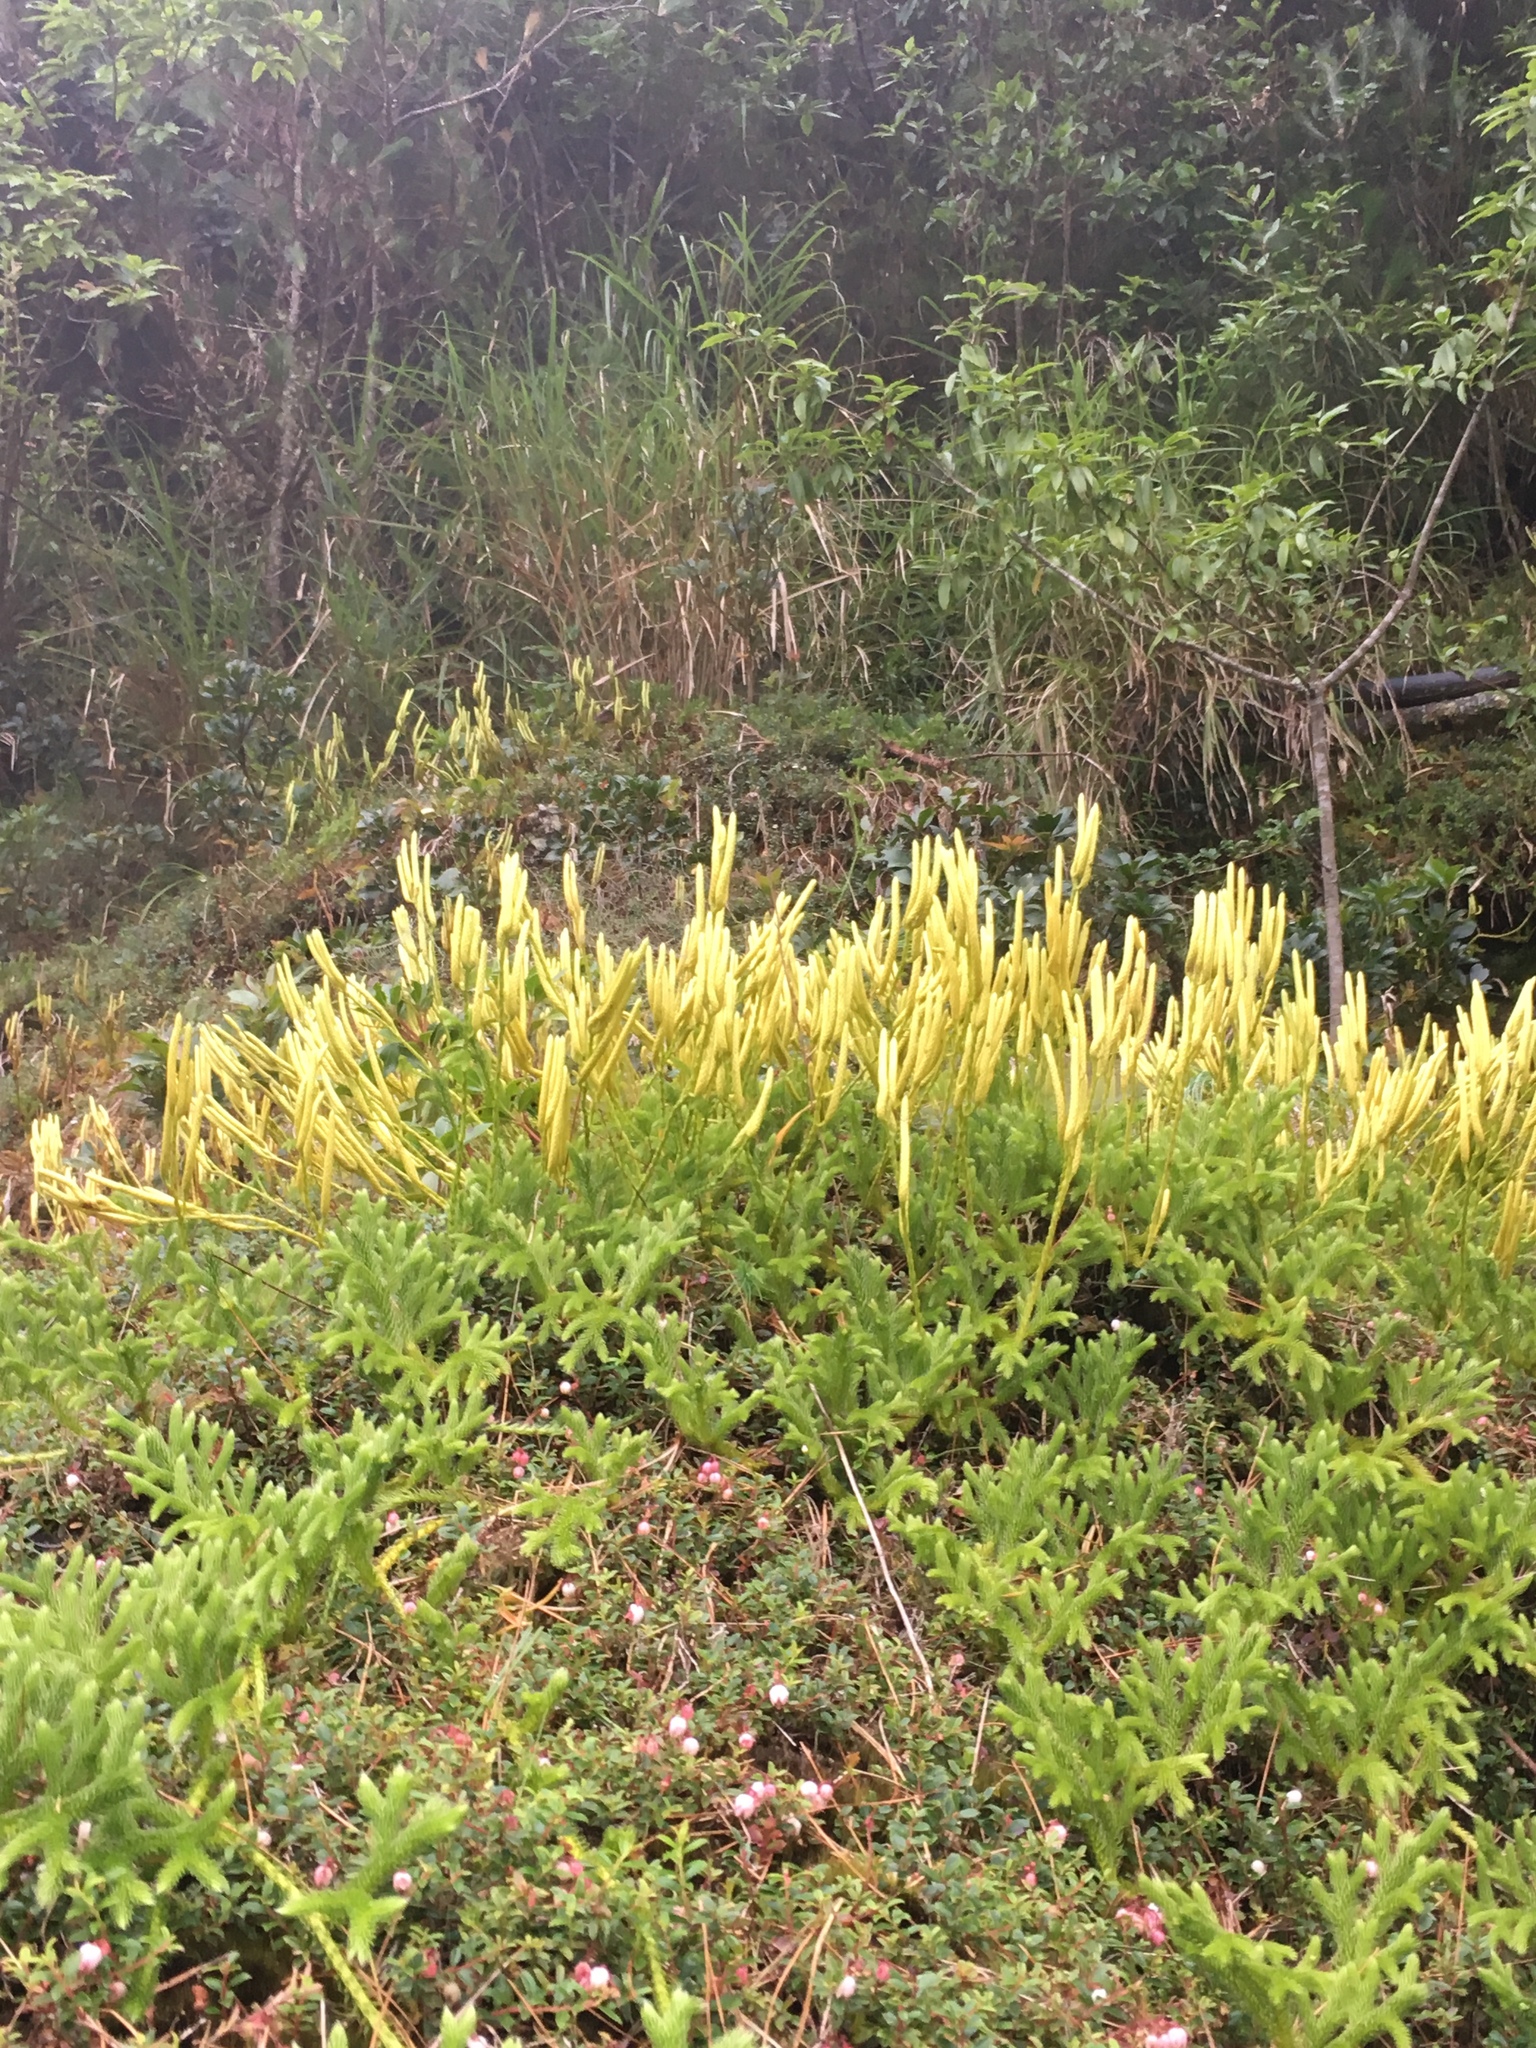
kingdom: Plantae
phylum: Tracheophyta
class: Lycopodiopsida
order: Lycopodiales
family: Lycopodiaceae
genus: Lycopodium
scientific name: Lycopodium clavatum
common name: Stag's-horn clubmoss
